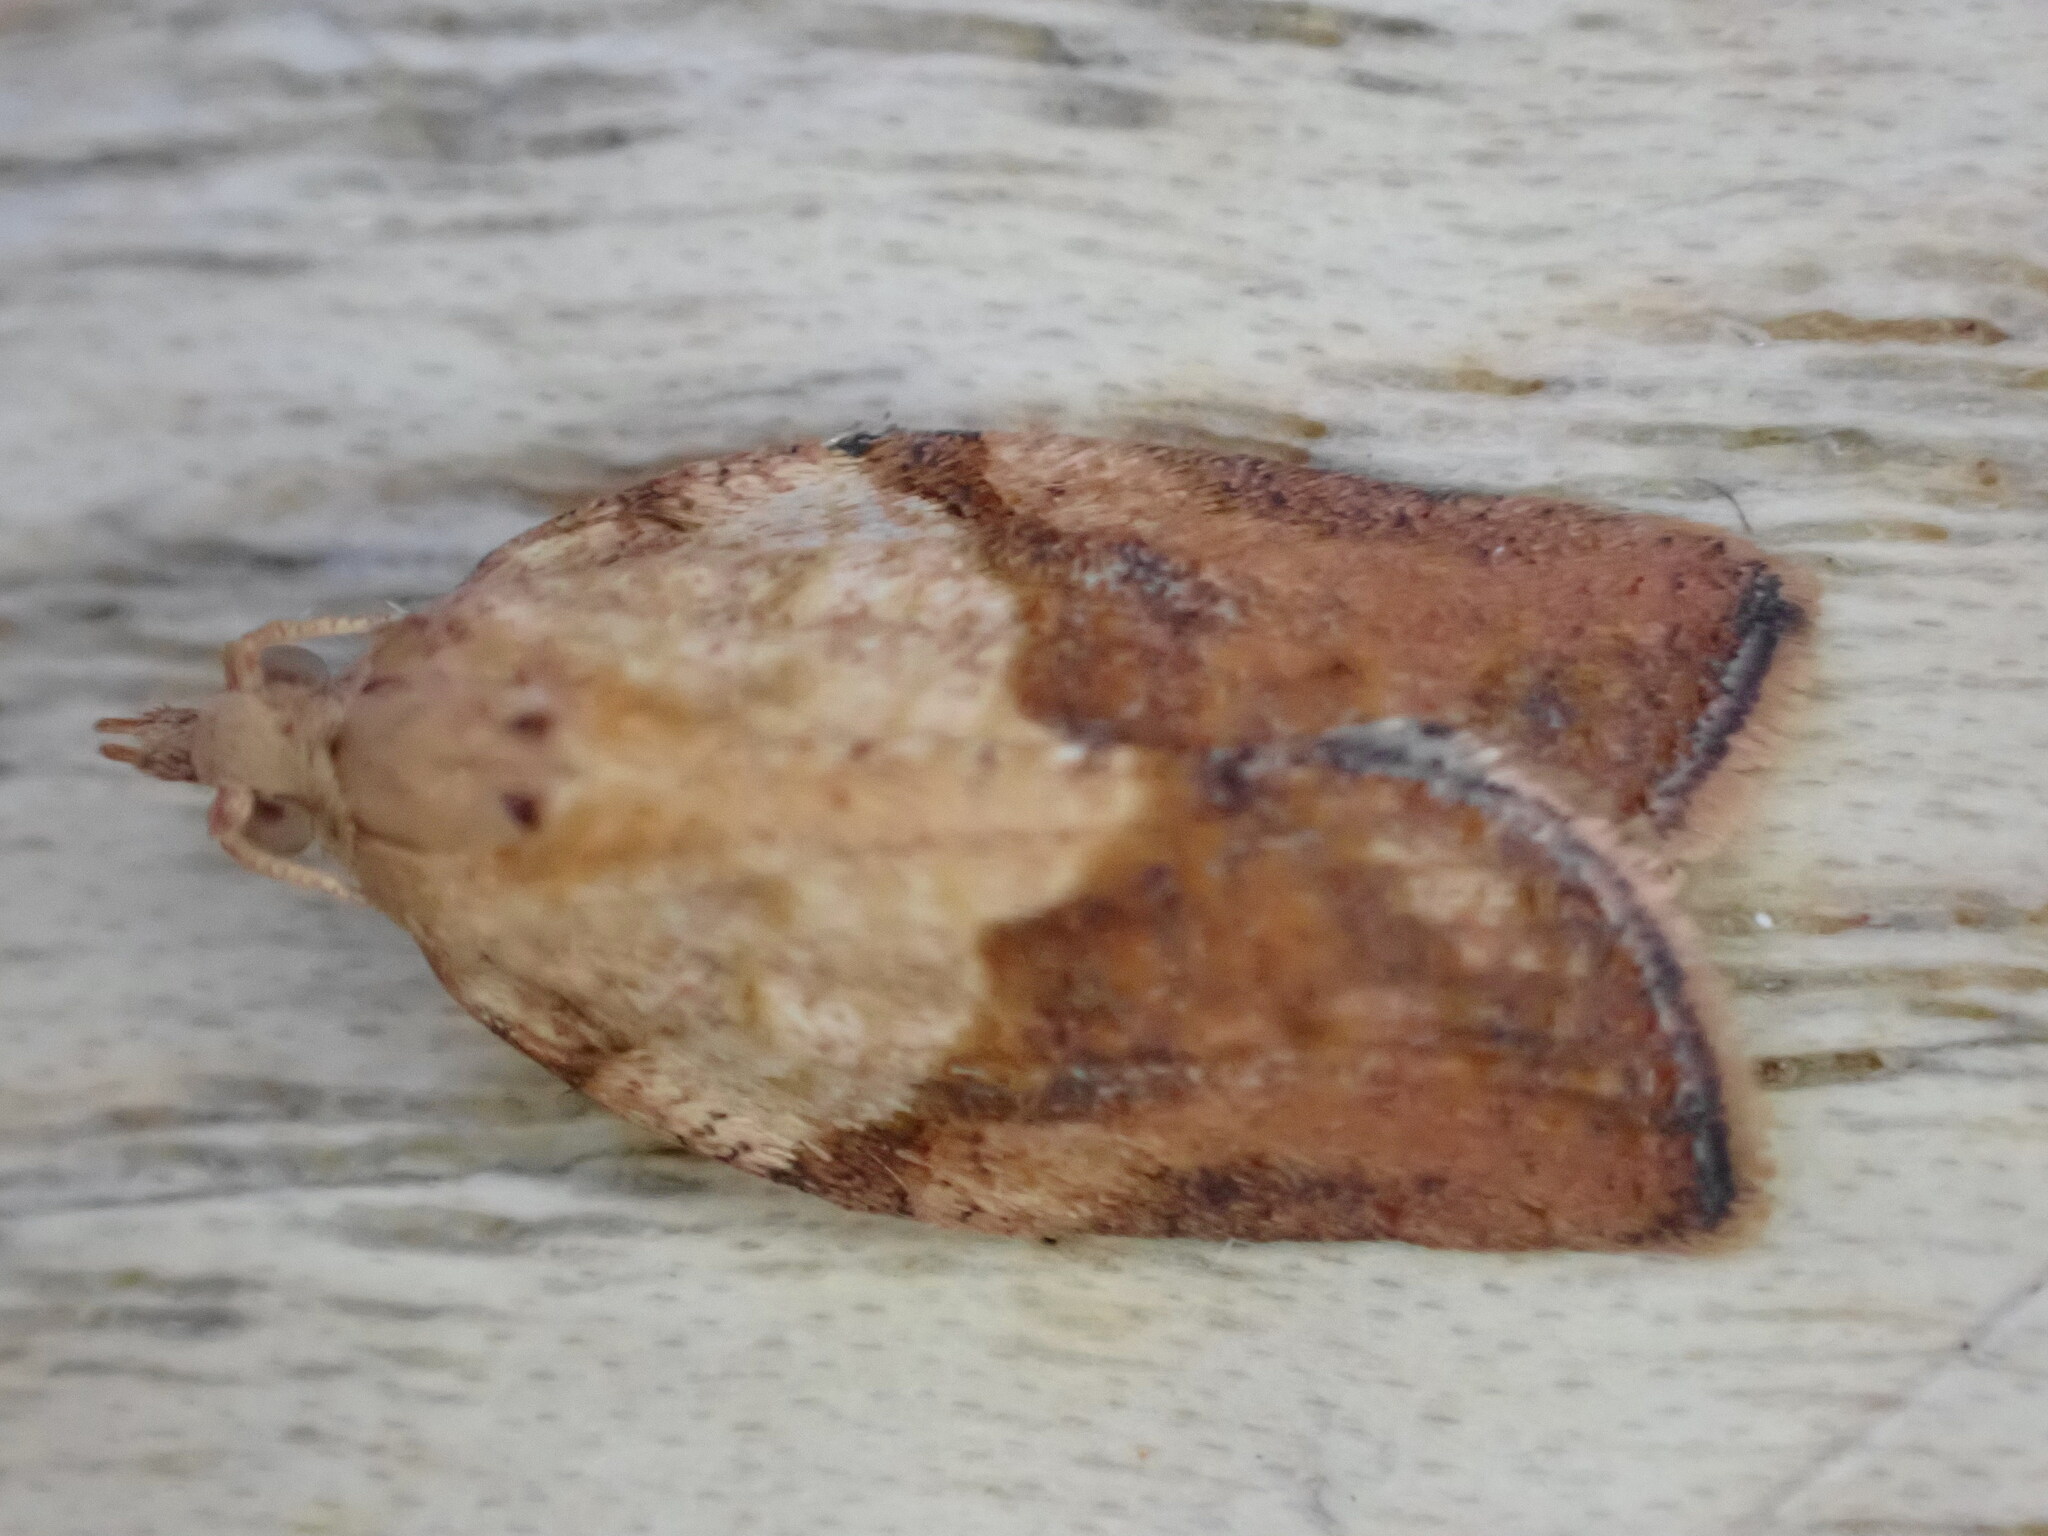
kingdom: Animalia
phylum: Arthropoda
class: Insecta
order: Lepidoptera
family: Tortricidae
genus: Epiphyas
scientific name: Epiphyas postvittana
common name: Light brown apple moth
